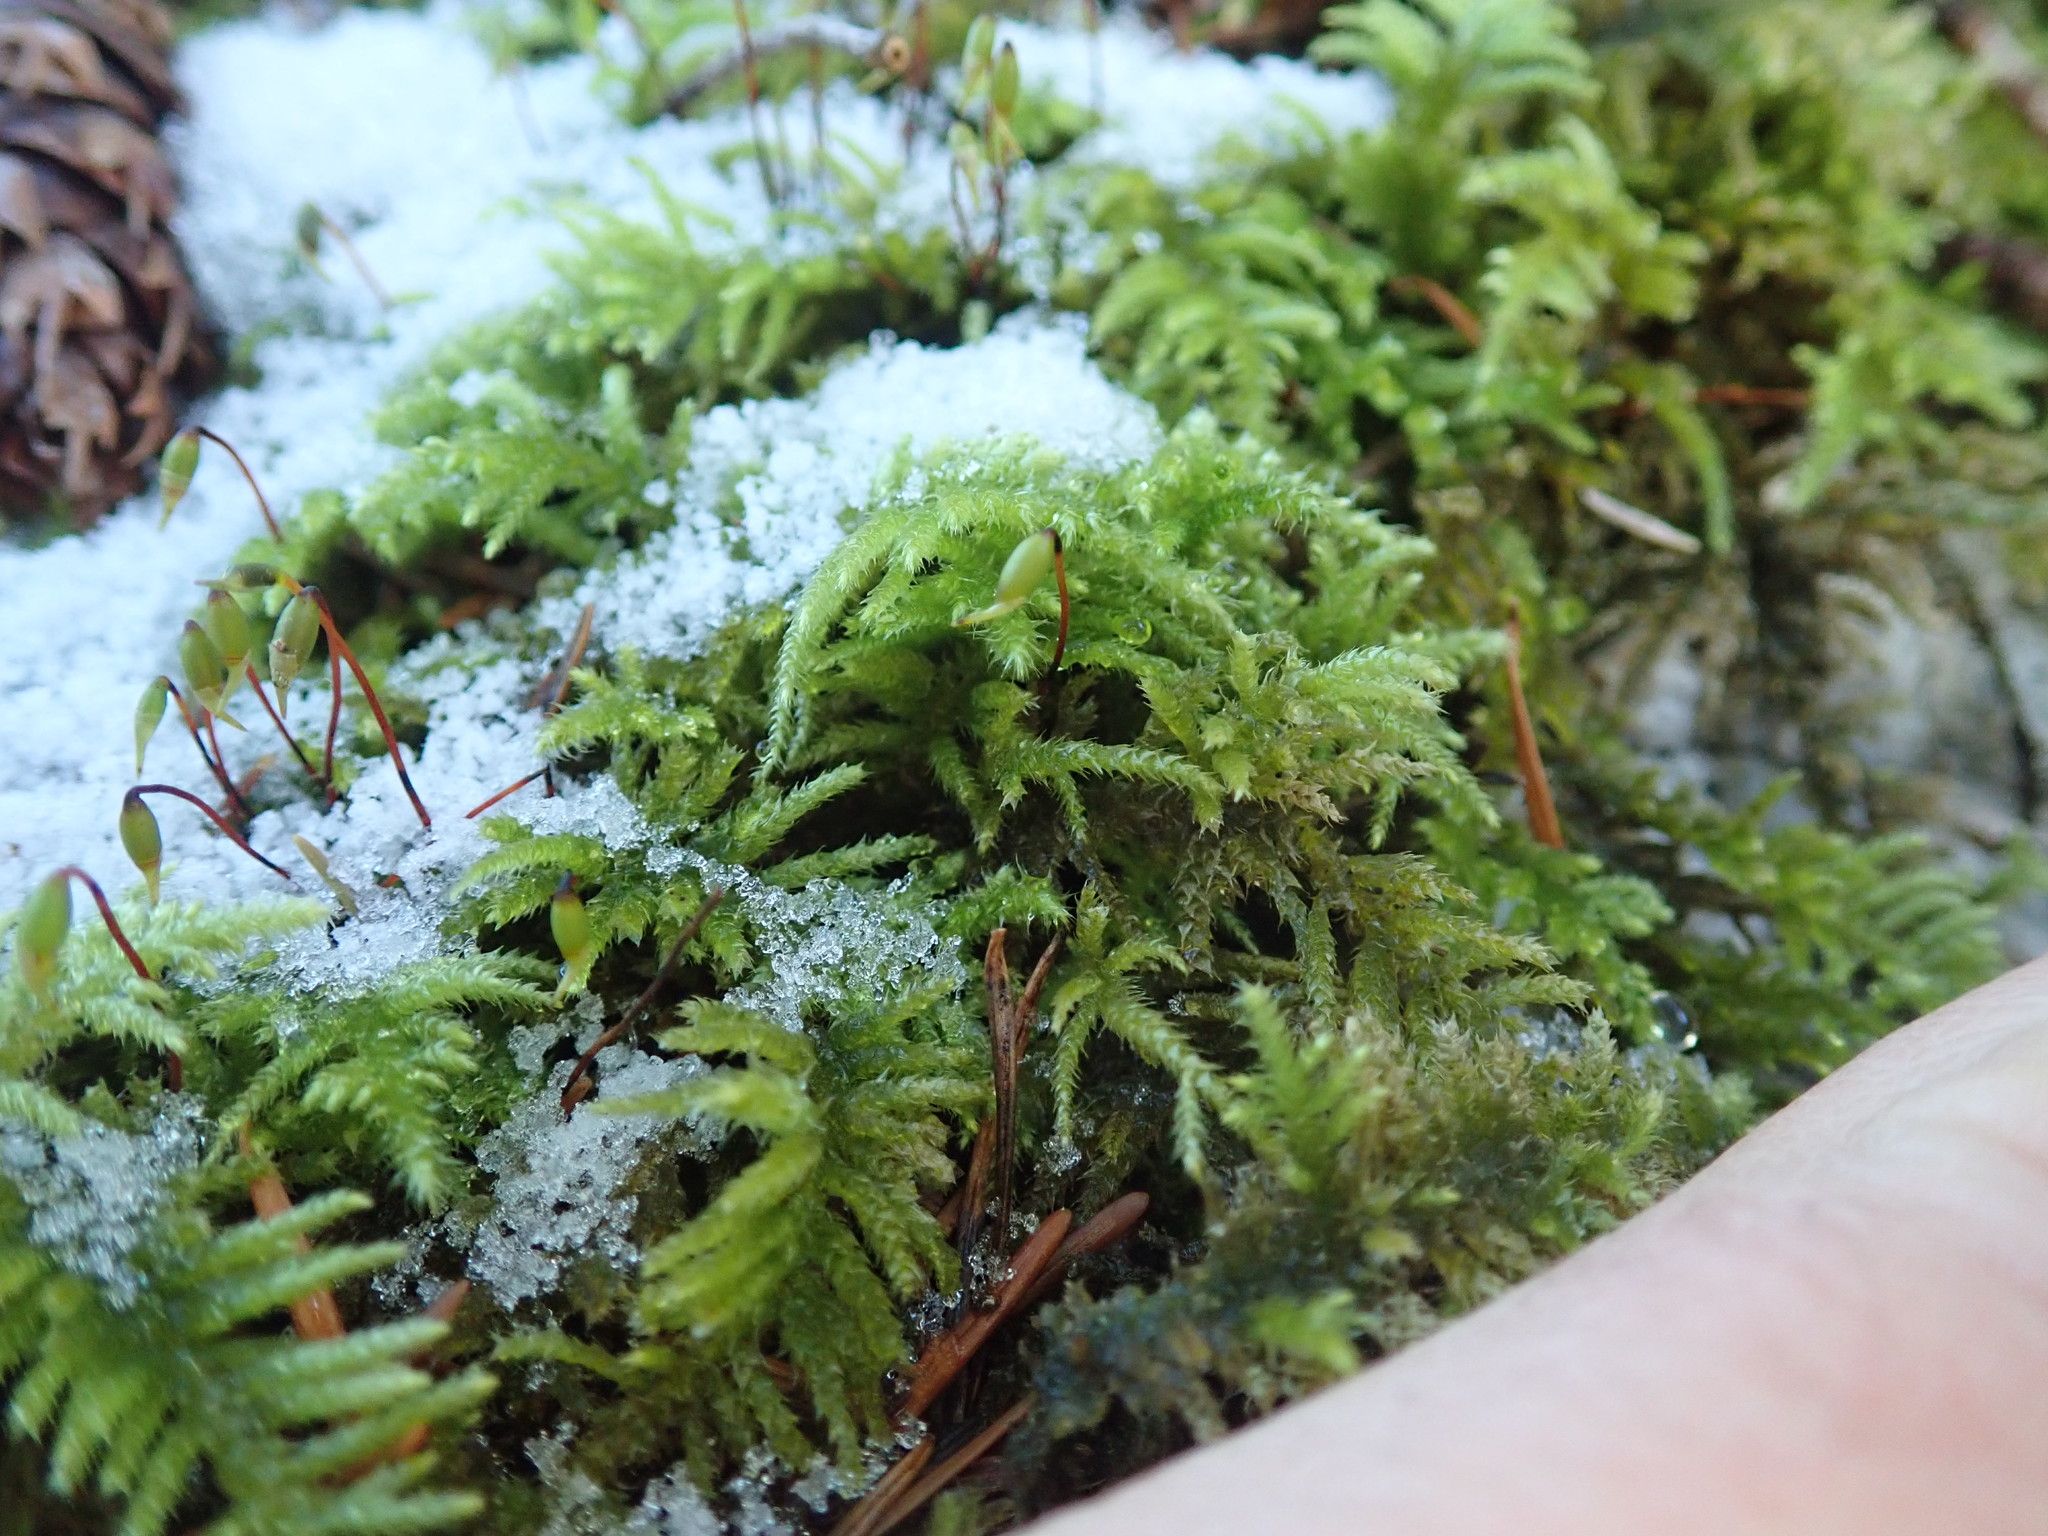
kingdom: Plantae
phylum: Bryophyta
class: Bryopsida
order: Hypnales
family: Brachytheciaceae
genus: Kindbergia
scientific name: Kindbergia oregana
